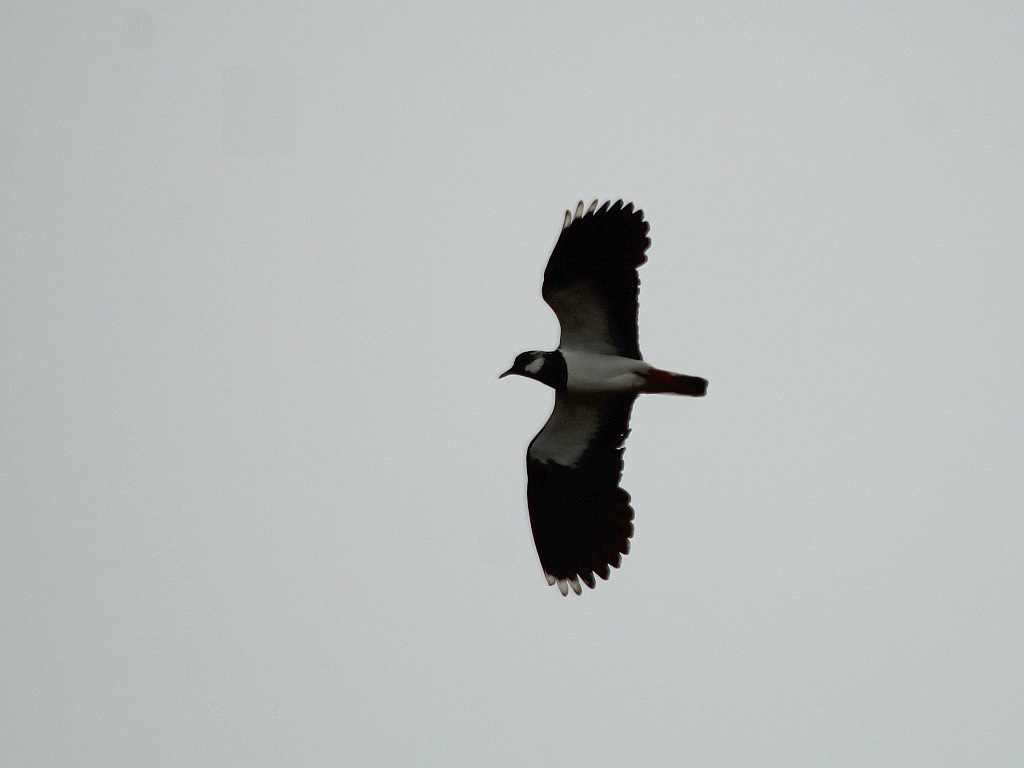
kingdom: Animalia
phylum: Chordata
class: Aves
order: Charadriiformes
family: Charadriidae
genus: Vanellus
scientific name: Vanellus vanellus
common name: Northern lapwing
